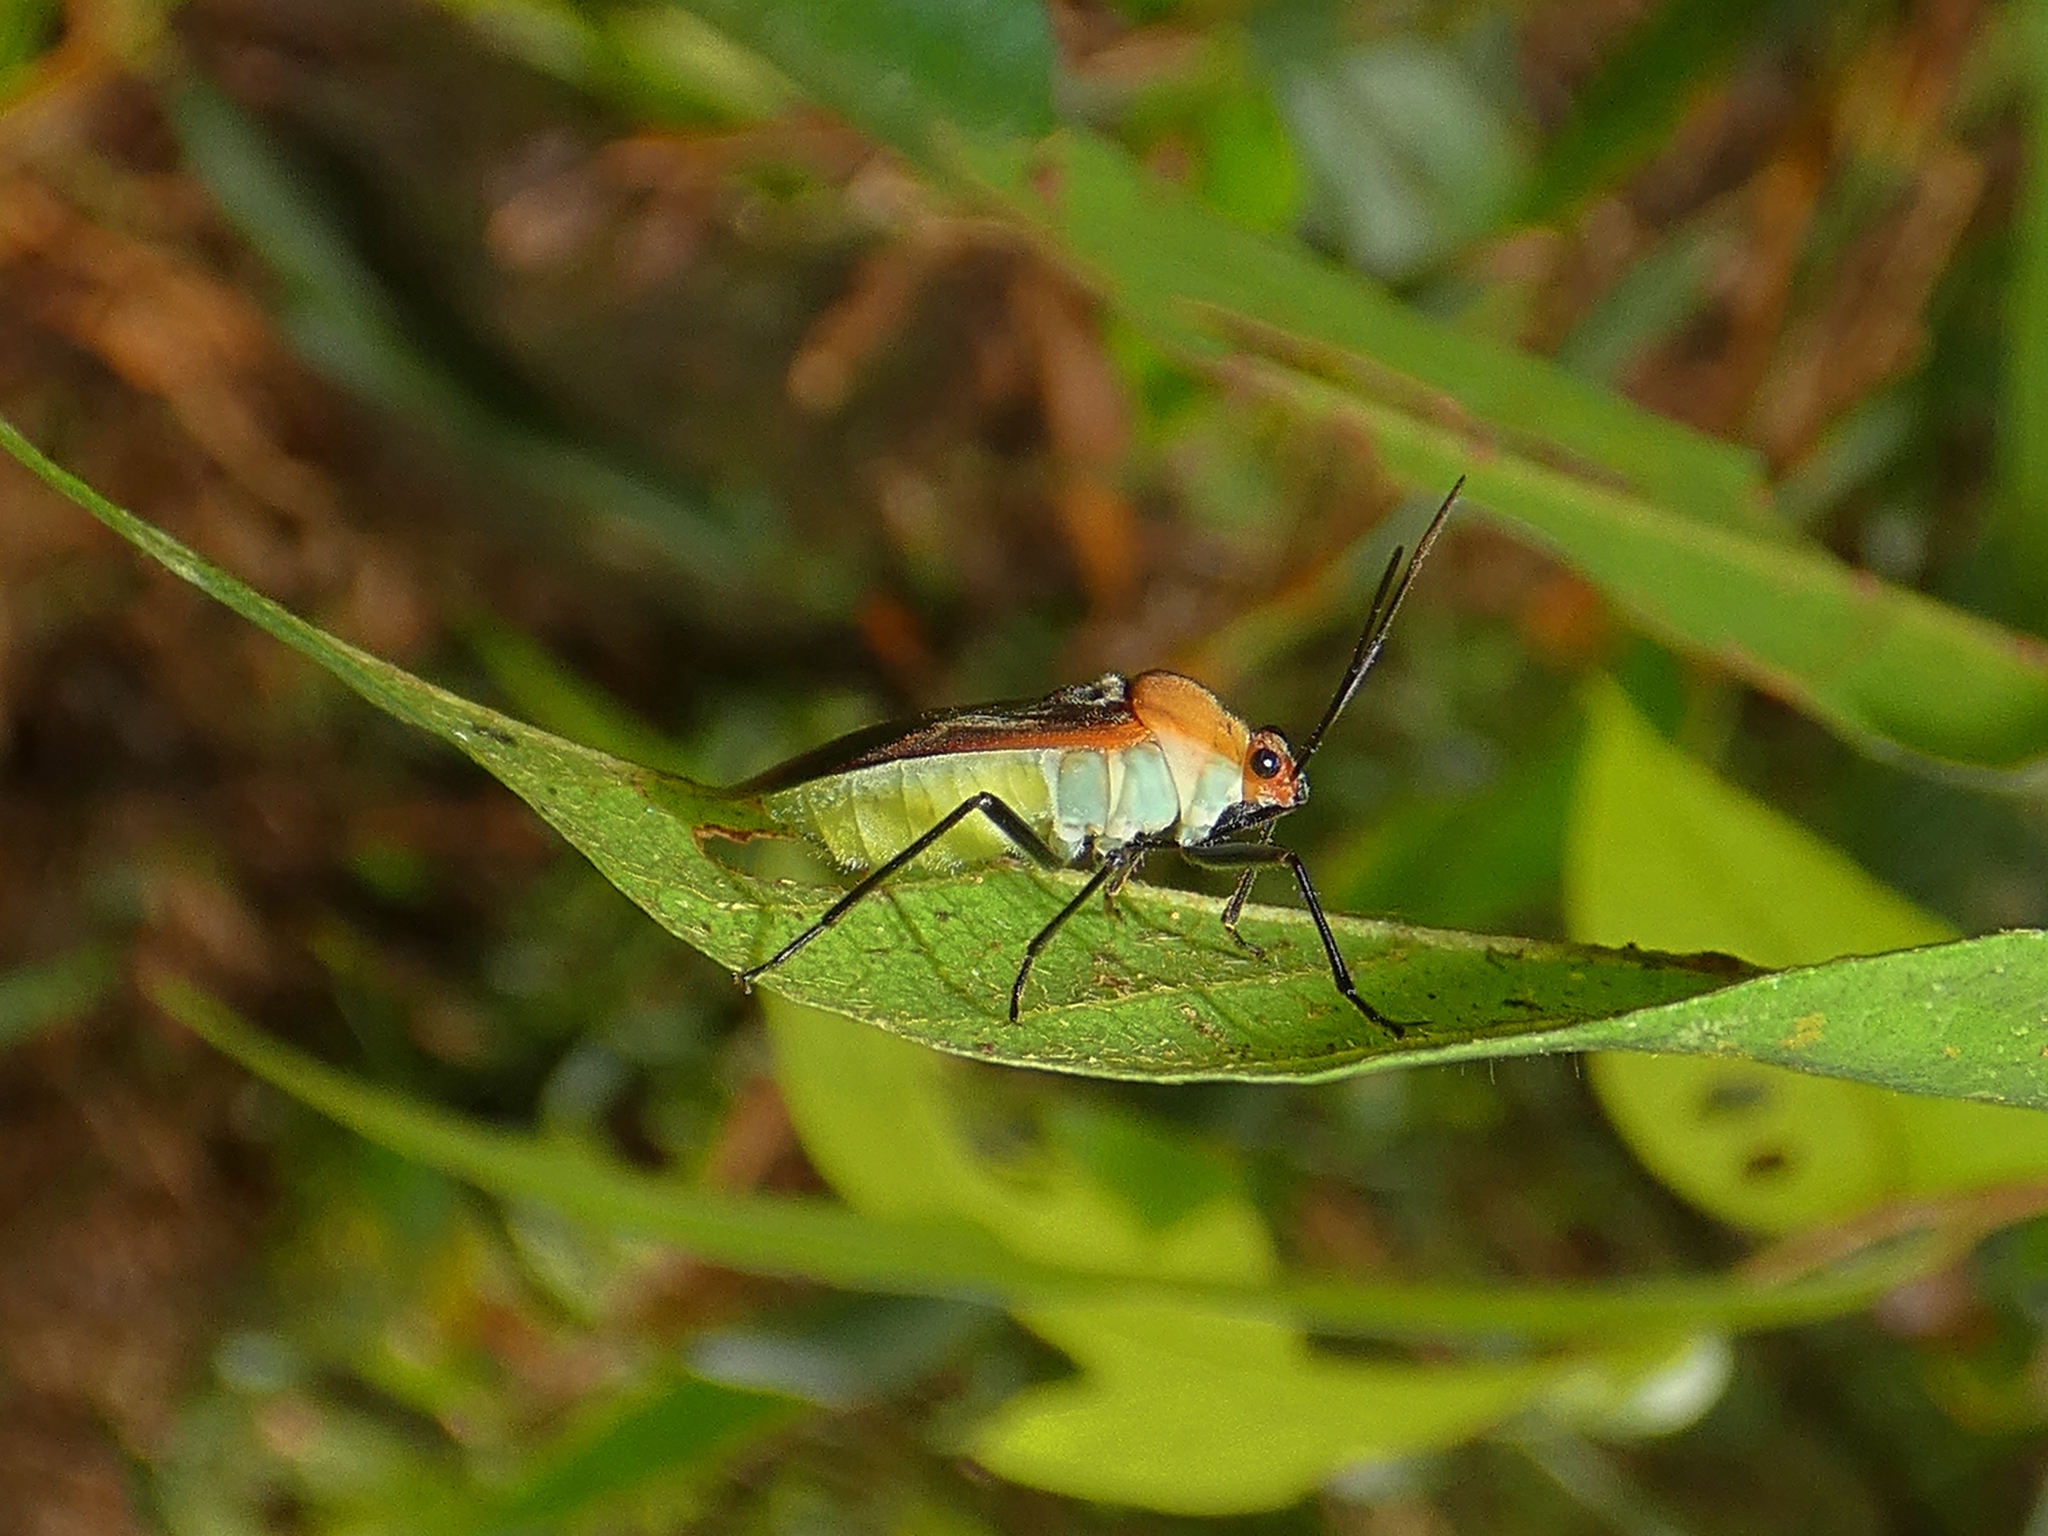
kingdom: Animalia
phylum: Arthropoda
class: Insecta
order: Hemiptera
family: Lygaeidae
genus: Astacops
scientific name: Astacops viridiventris
